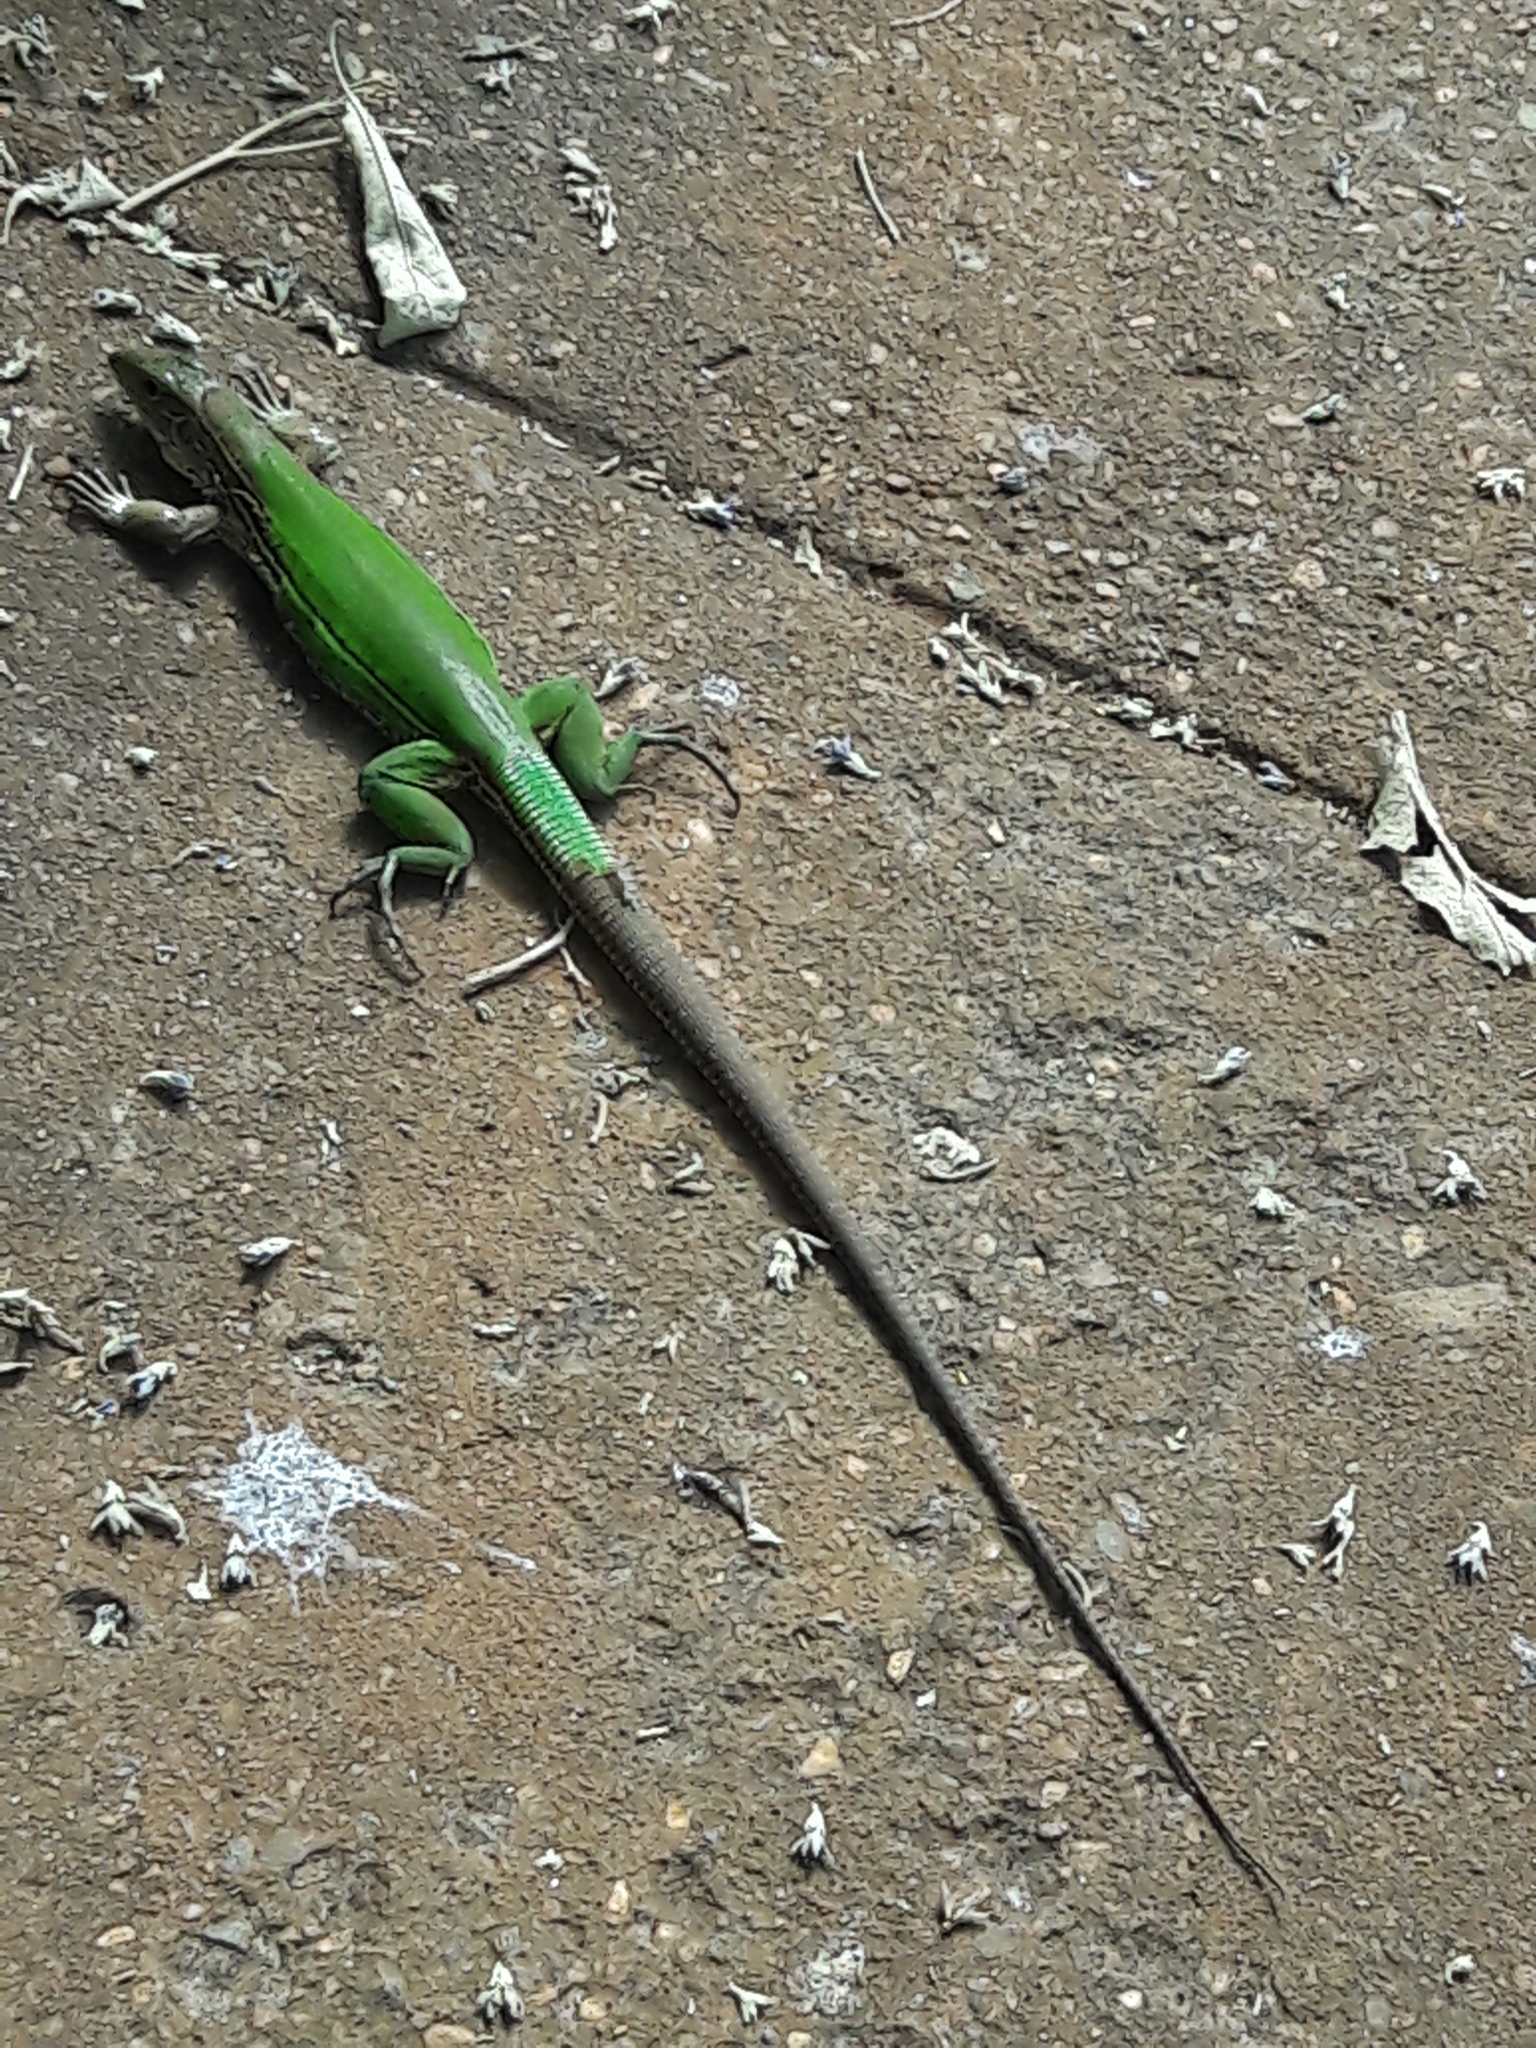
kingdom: Animalia
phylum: Chordata
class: Squamata
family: Teiidae
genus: Ameiva
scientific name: Ameiva ameiva
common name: Giant ameiva
